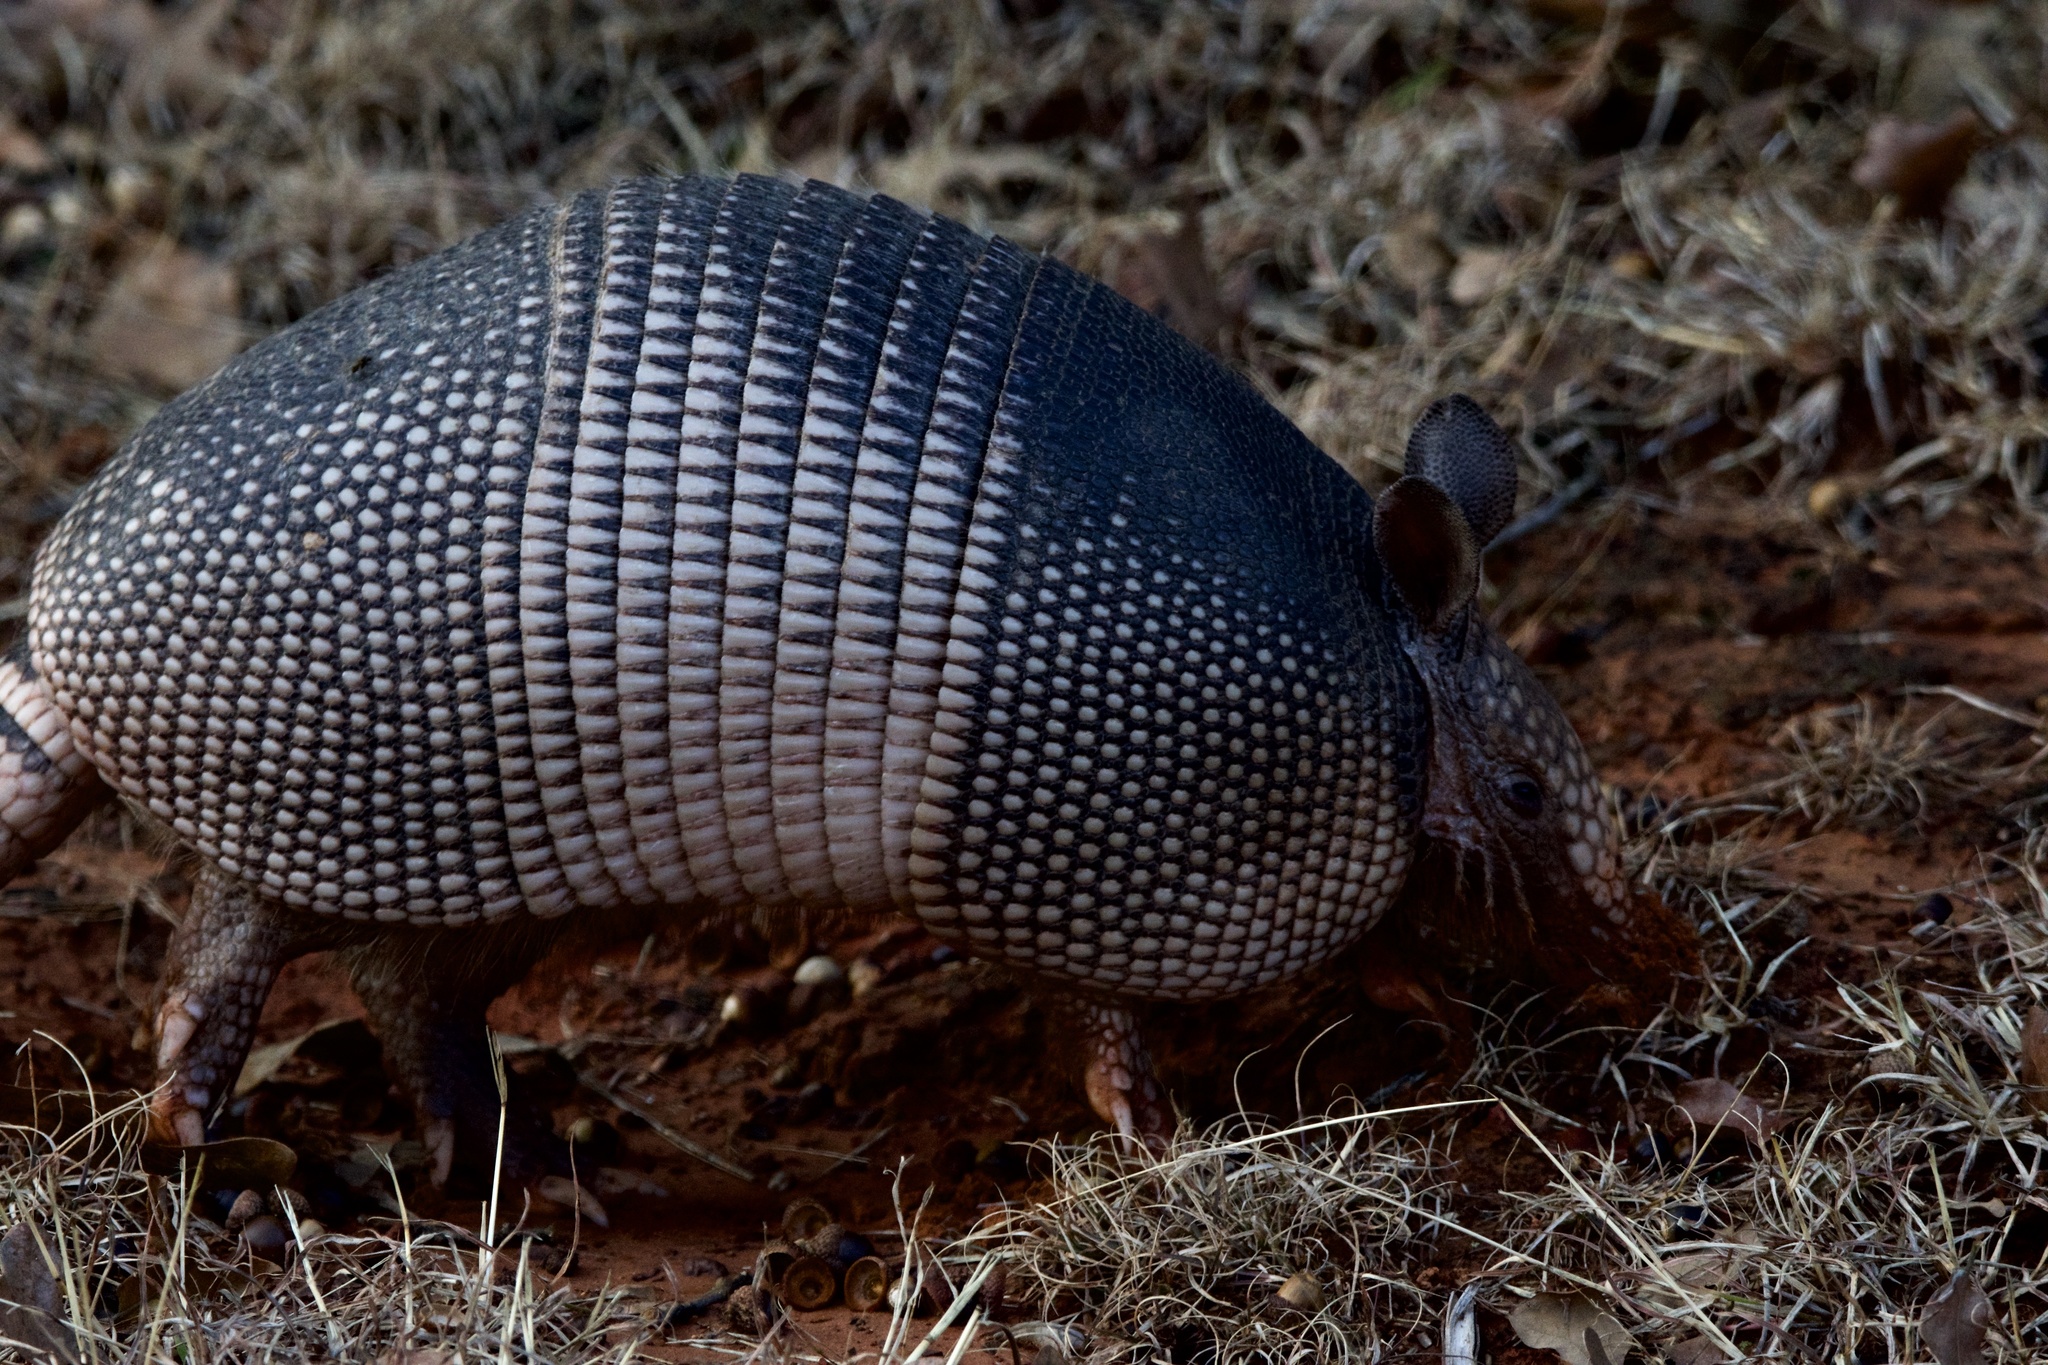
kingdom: Animalia
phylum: Chordata
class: Mammalia
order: Cingulata
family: Dasypodidae
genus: Dasypus
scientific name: Dasypus novemcinctus
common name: Nine-banded armadillo
